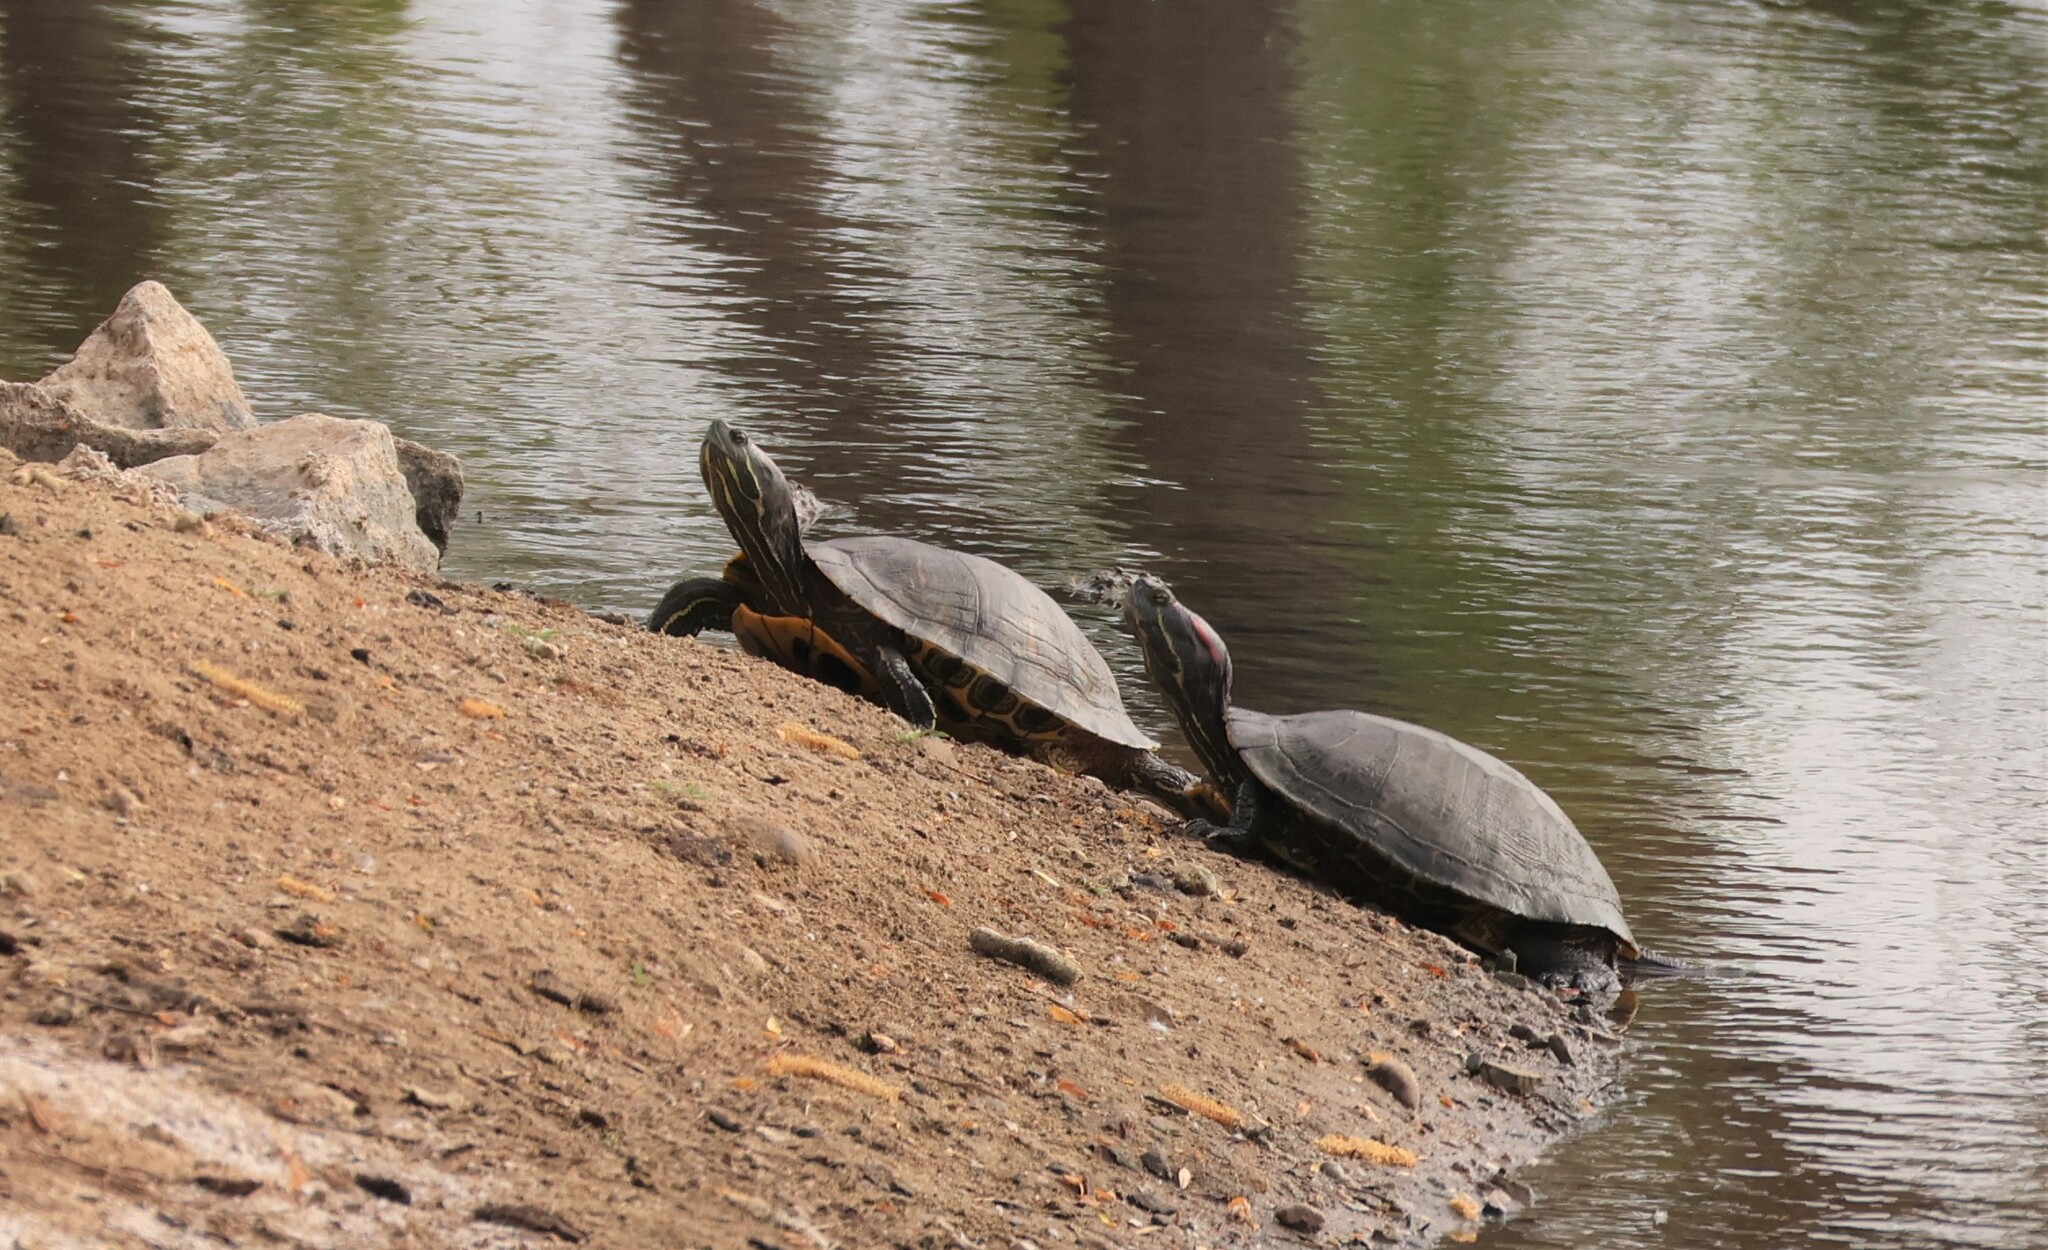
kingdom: Animalia
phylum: Chordata
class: Testudines
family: Emydidae
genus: Trachemys
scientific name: Trachemys scripta
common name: Slider
